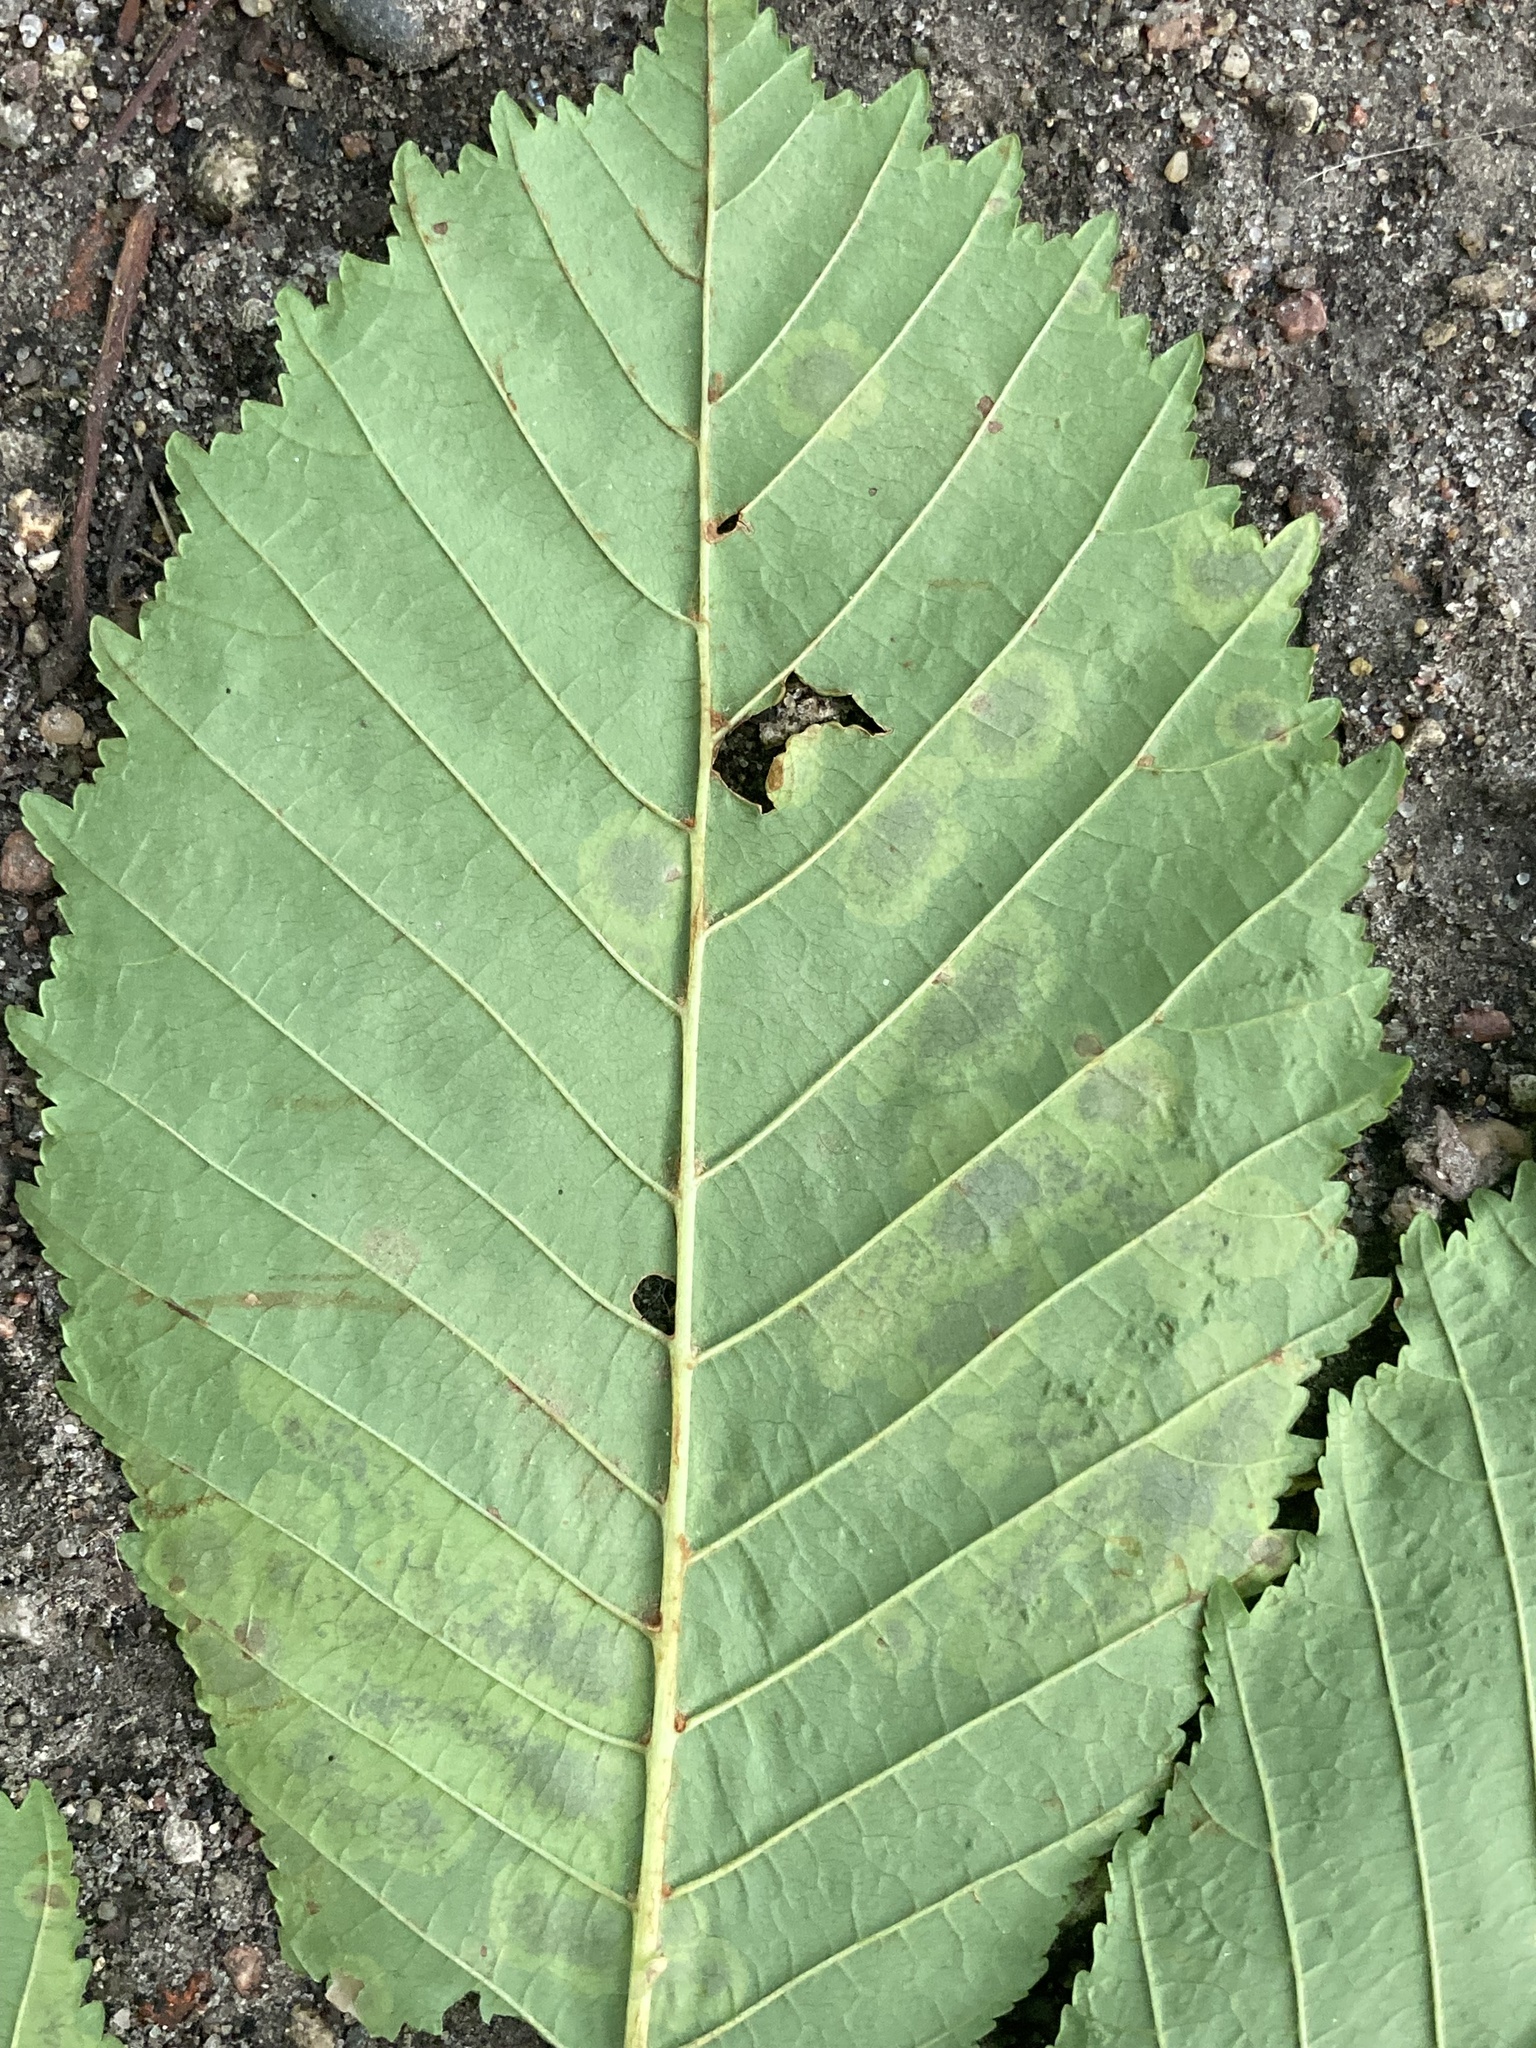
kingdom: Animalia
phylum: Arthropoda
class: Insecta
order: Lepidoptera
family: Gracillariidae
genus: Cameraria
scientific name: Cameraria ohridella
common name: Horse-chestnut leaf-miner
